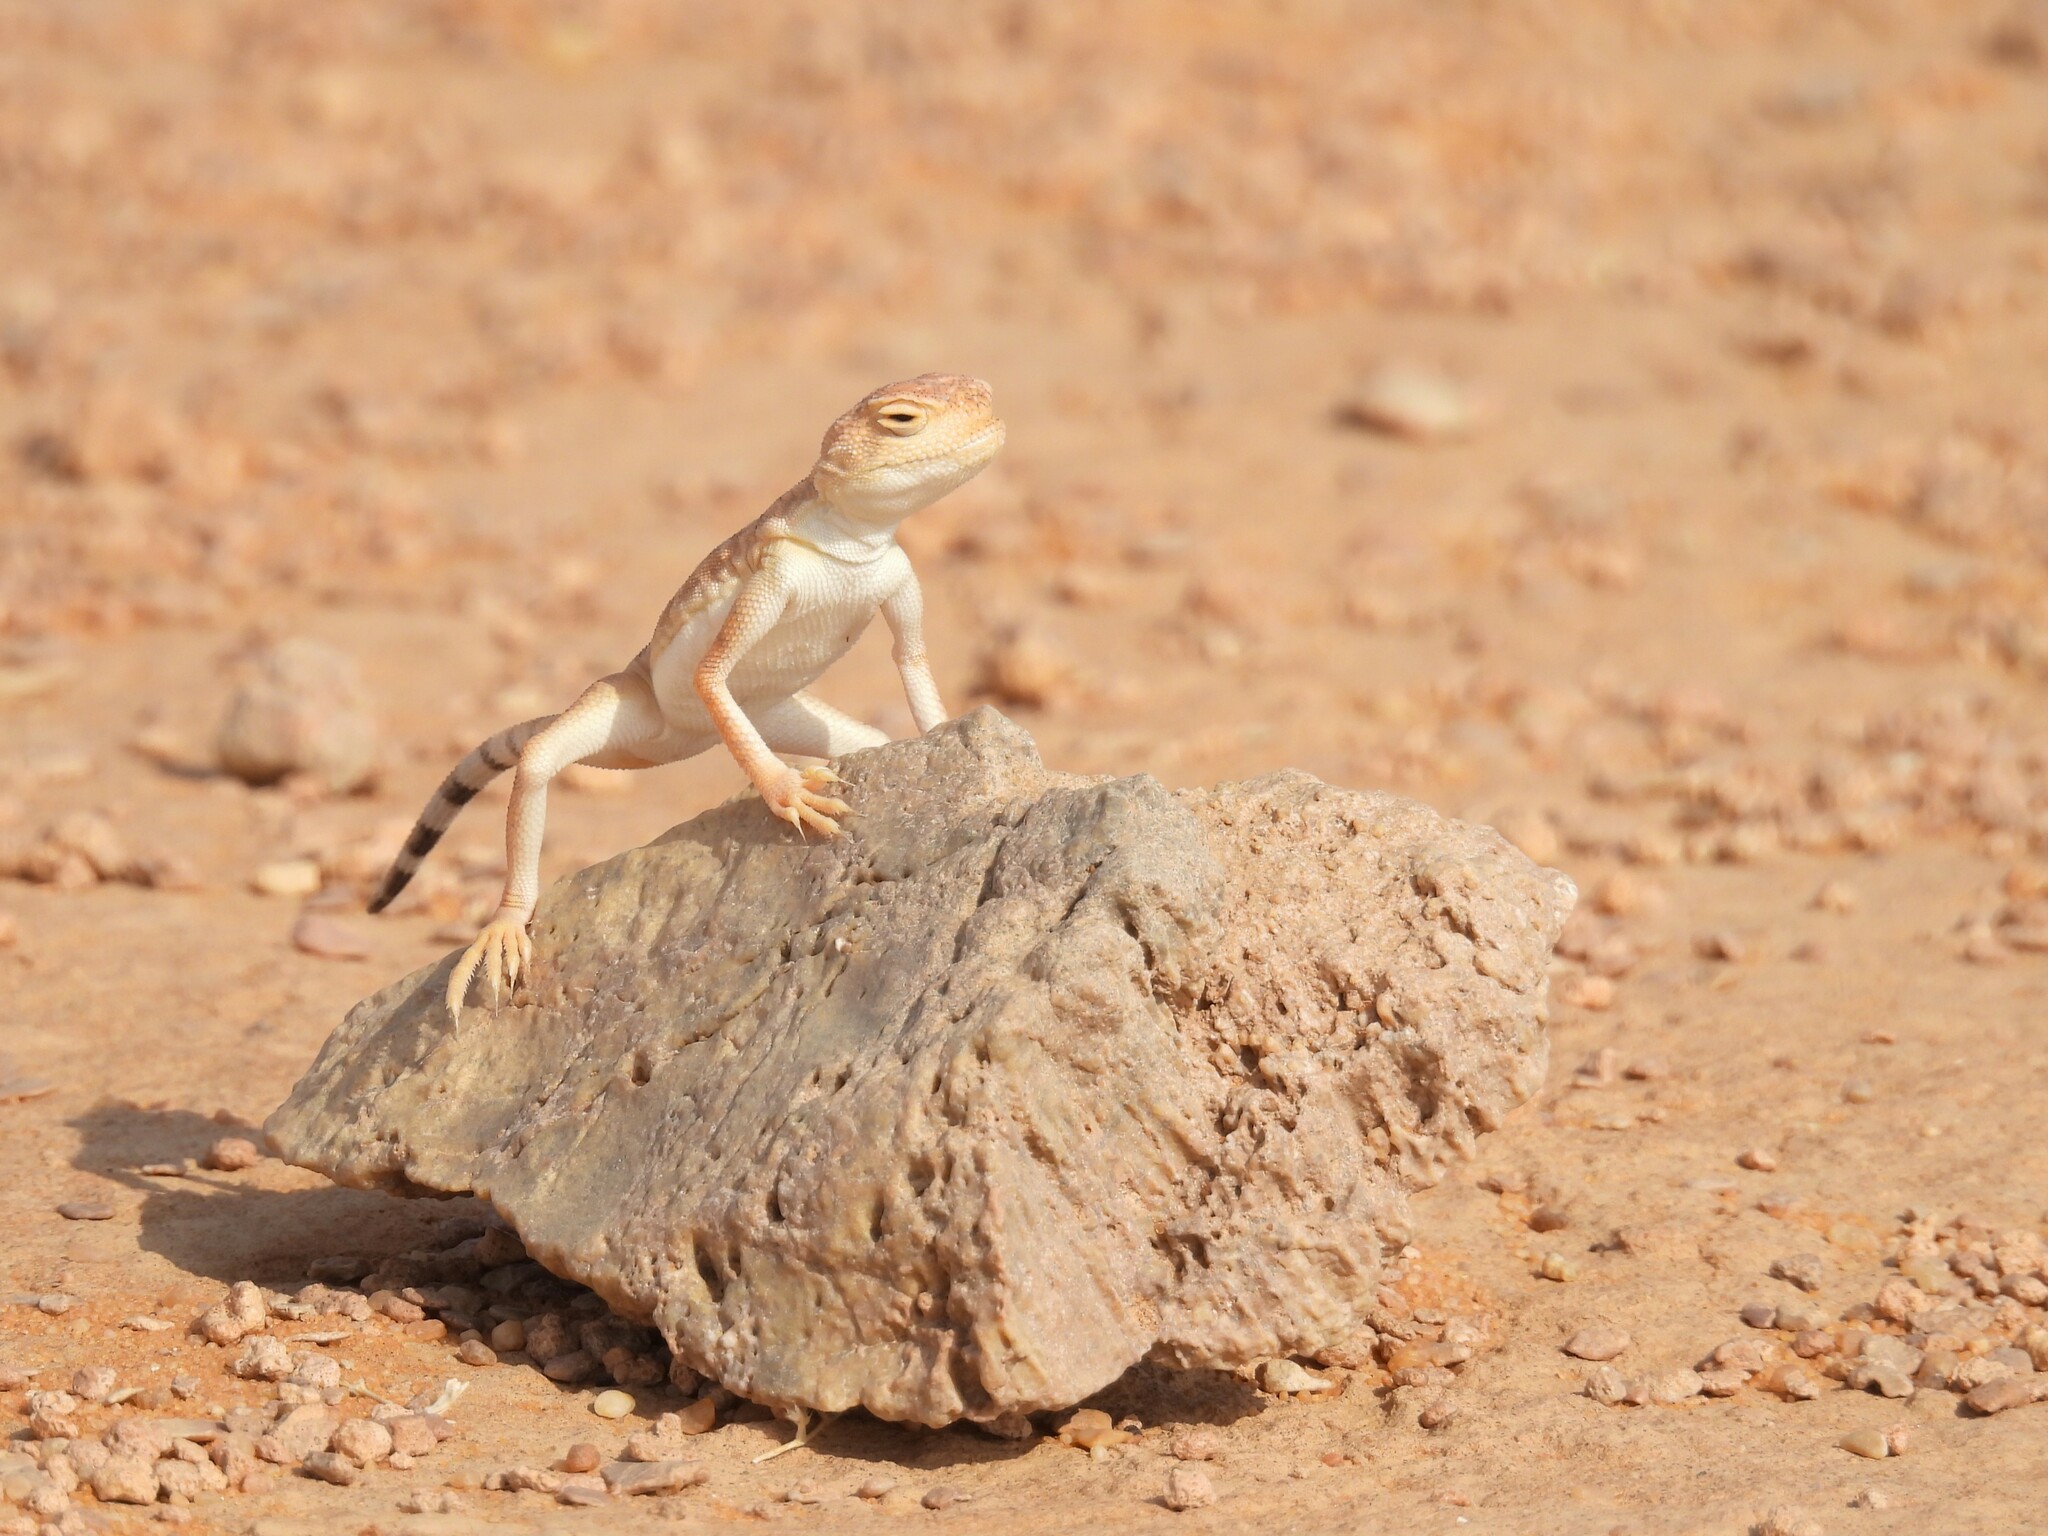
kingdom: Animalia
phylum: Chordata
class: Squamata
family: Agamidae
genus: Phrynocephalus
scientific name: Phrynocephalus arabicus
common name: Arabian toad-headed agama
